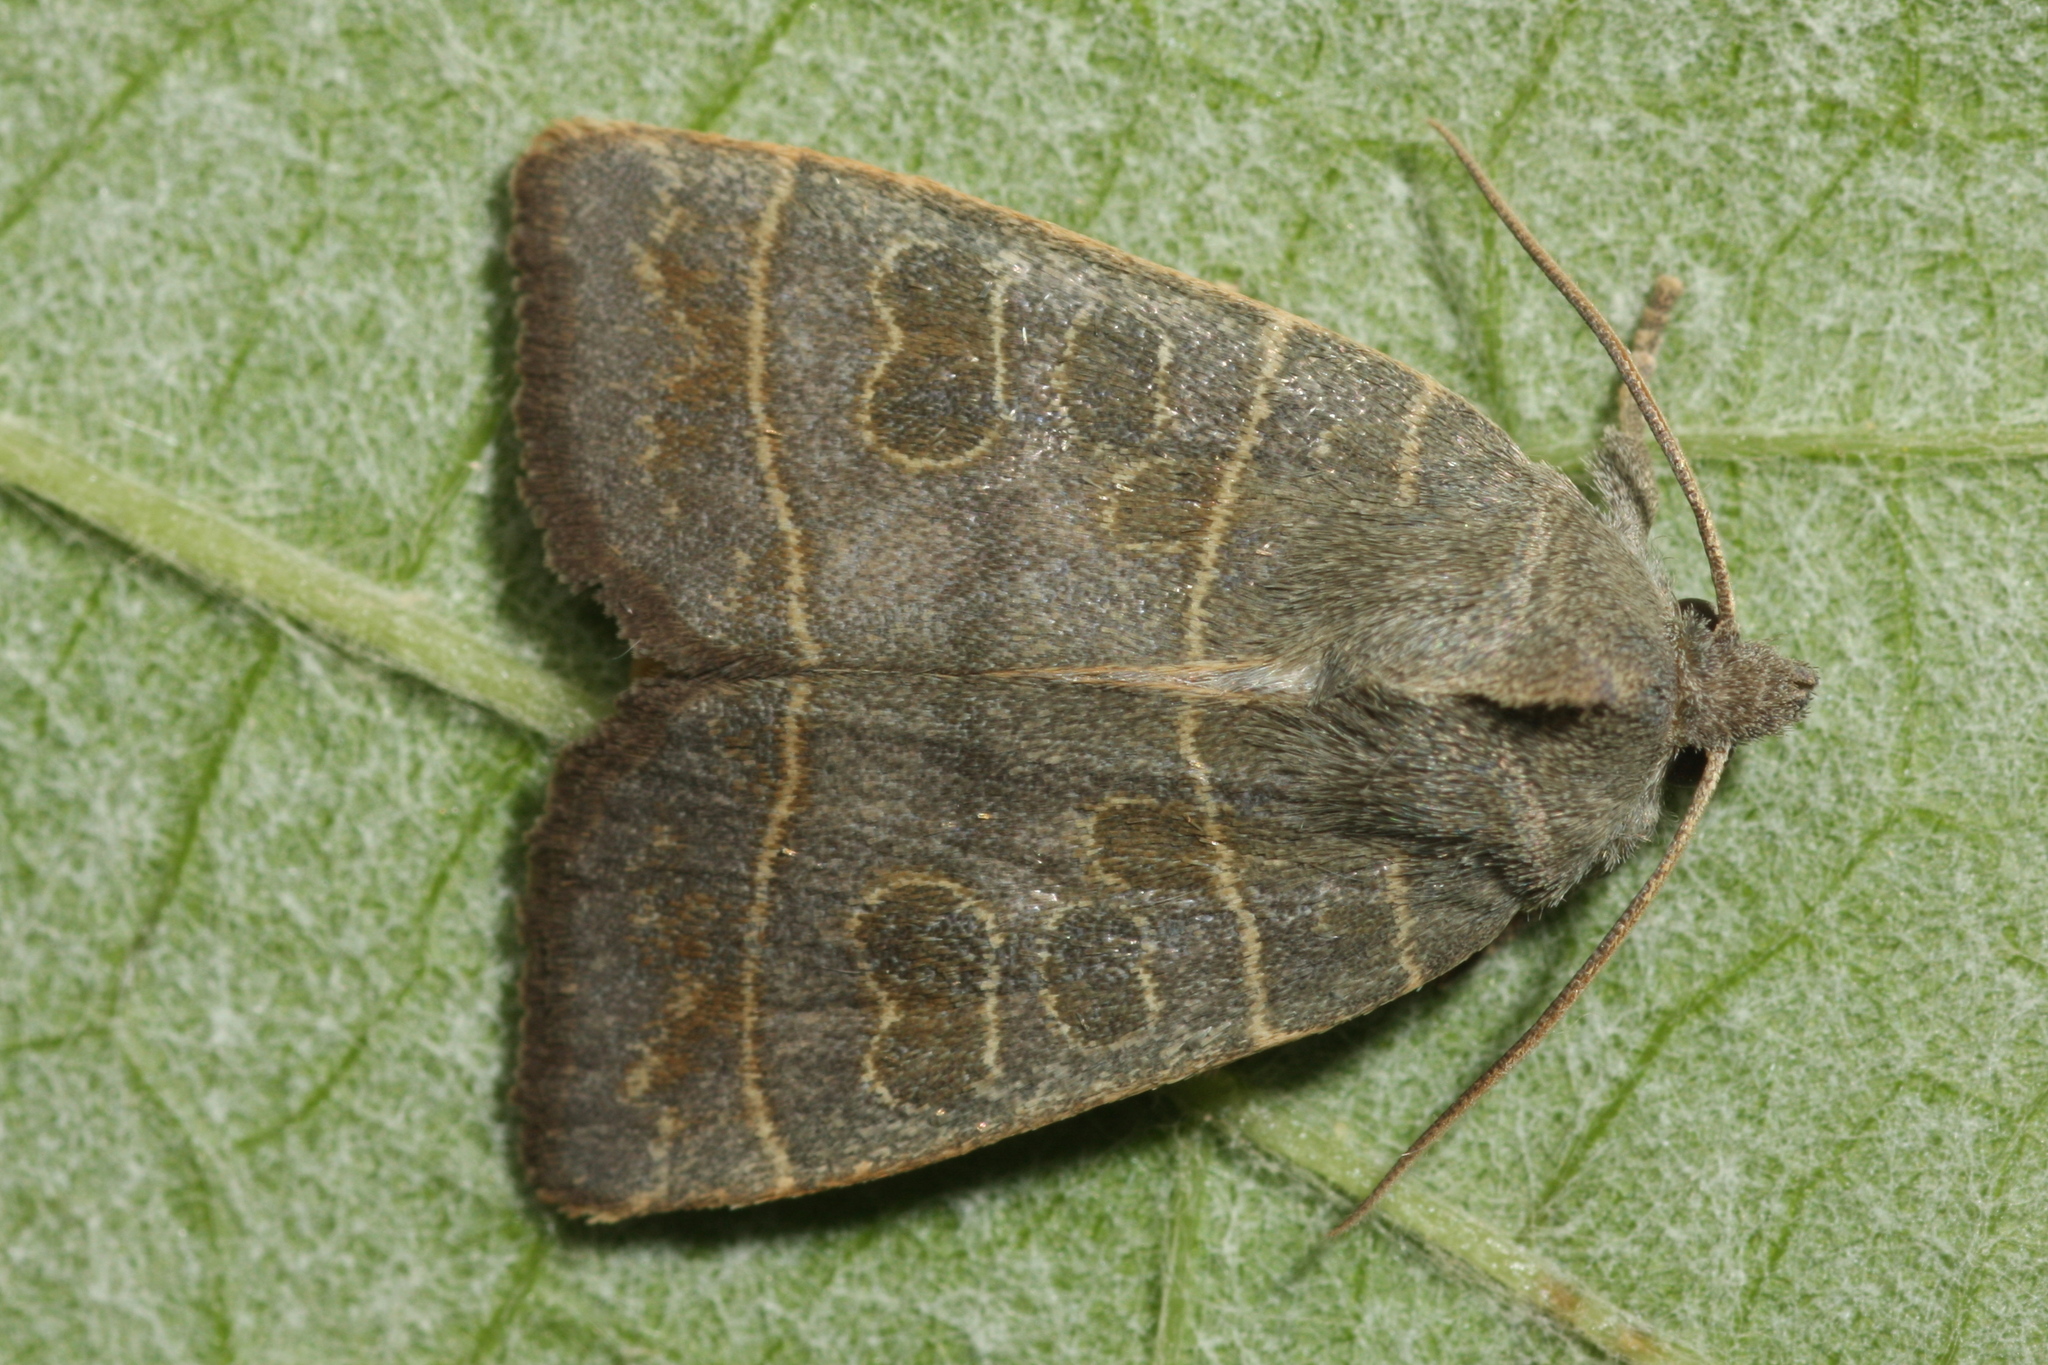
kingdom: Animalia
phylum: Arthropoda
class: Insecta
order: Lepidoptera
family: Noctuidae
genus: Ipimorpha
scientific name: Ipimorpha subtusa
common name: Olive
